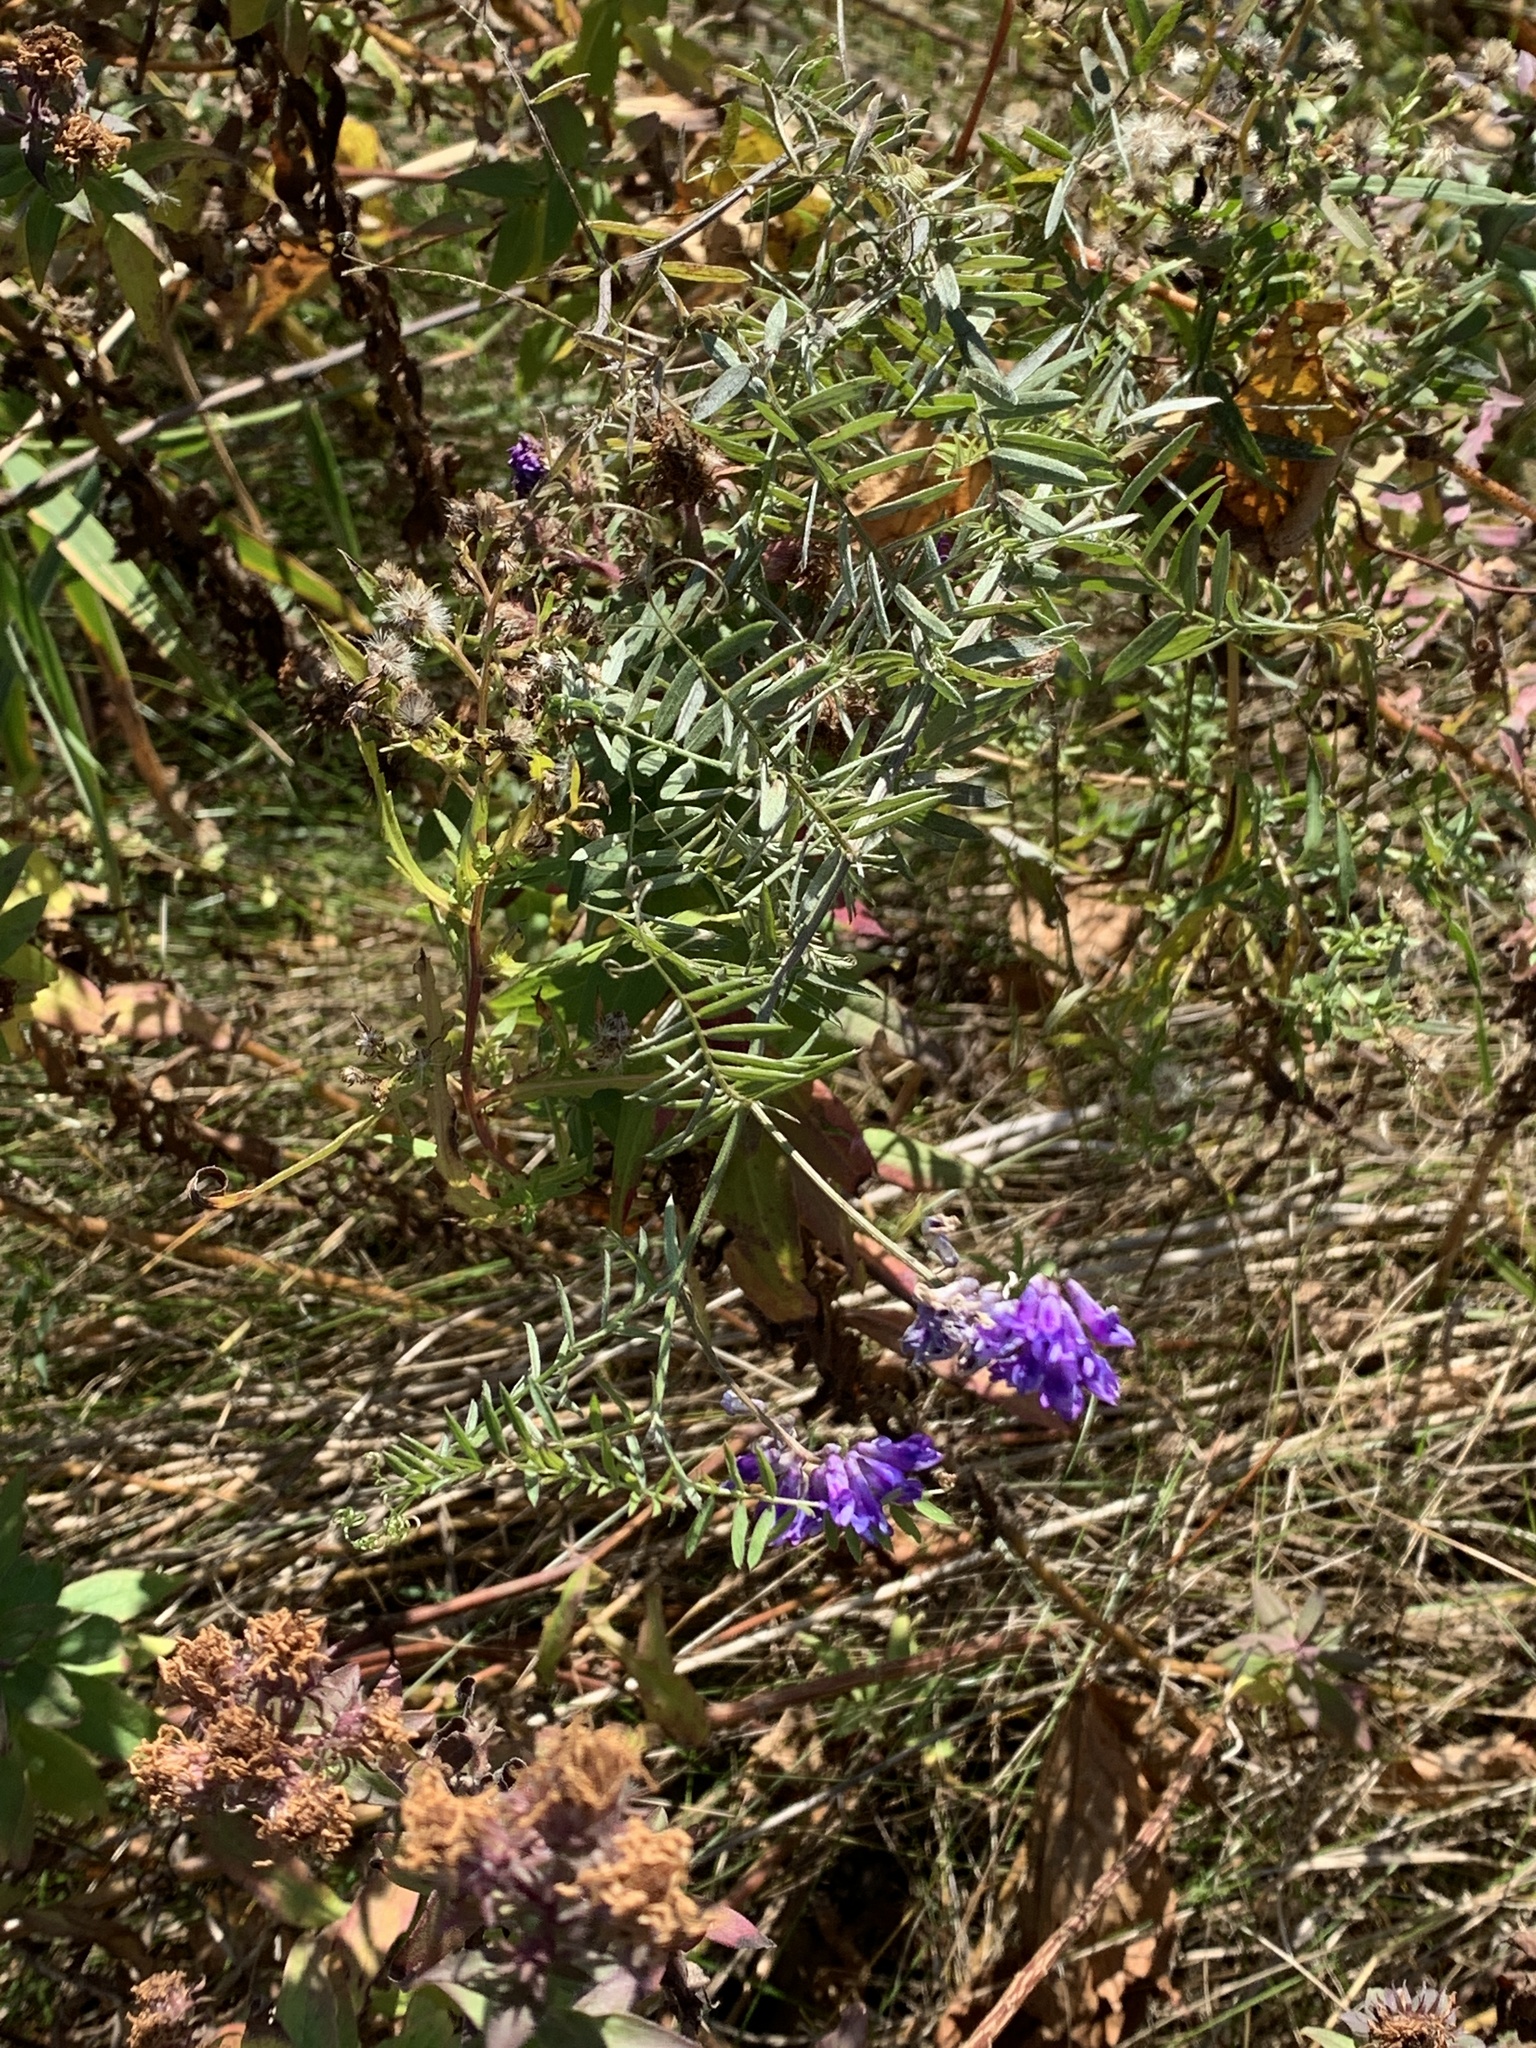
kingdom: Plantae
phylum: Tracheophyta
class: Magnoliopsida
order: Fabales
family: Fabaceae
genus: Vicia
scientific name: Vicia cracca
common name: Bird vetch
